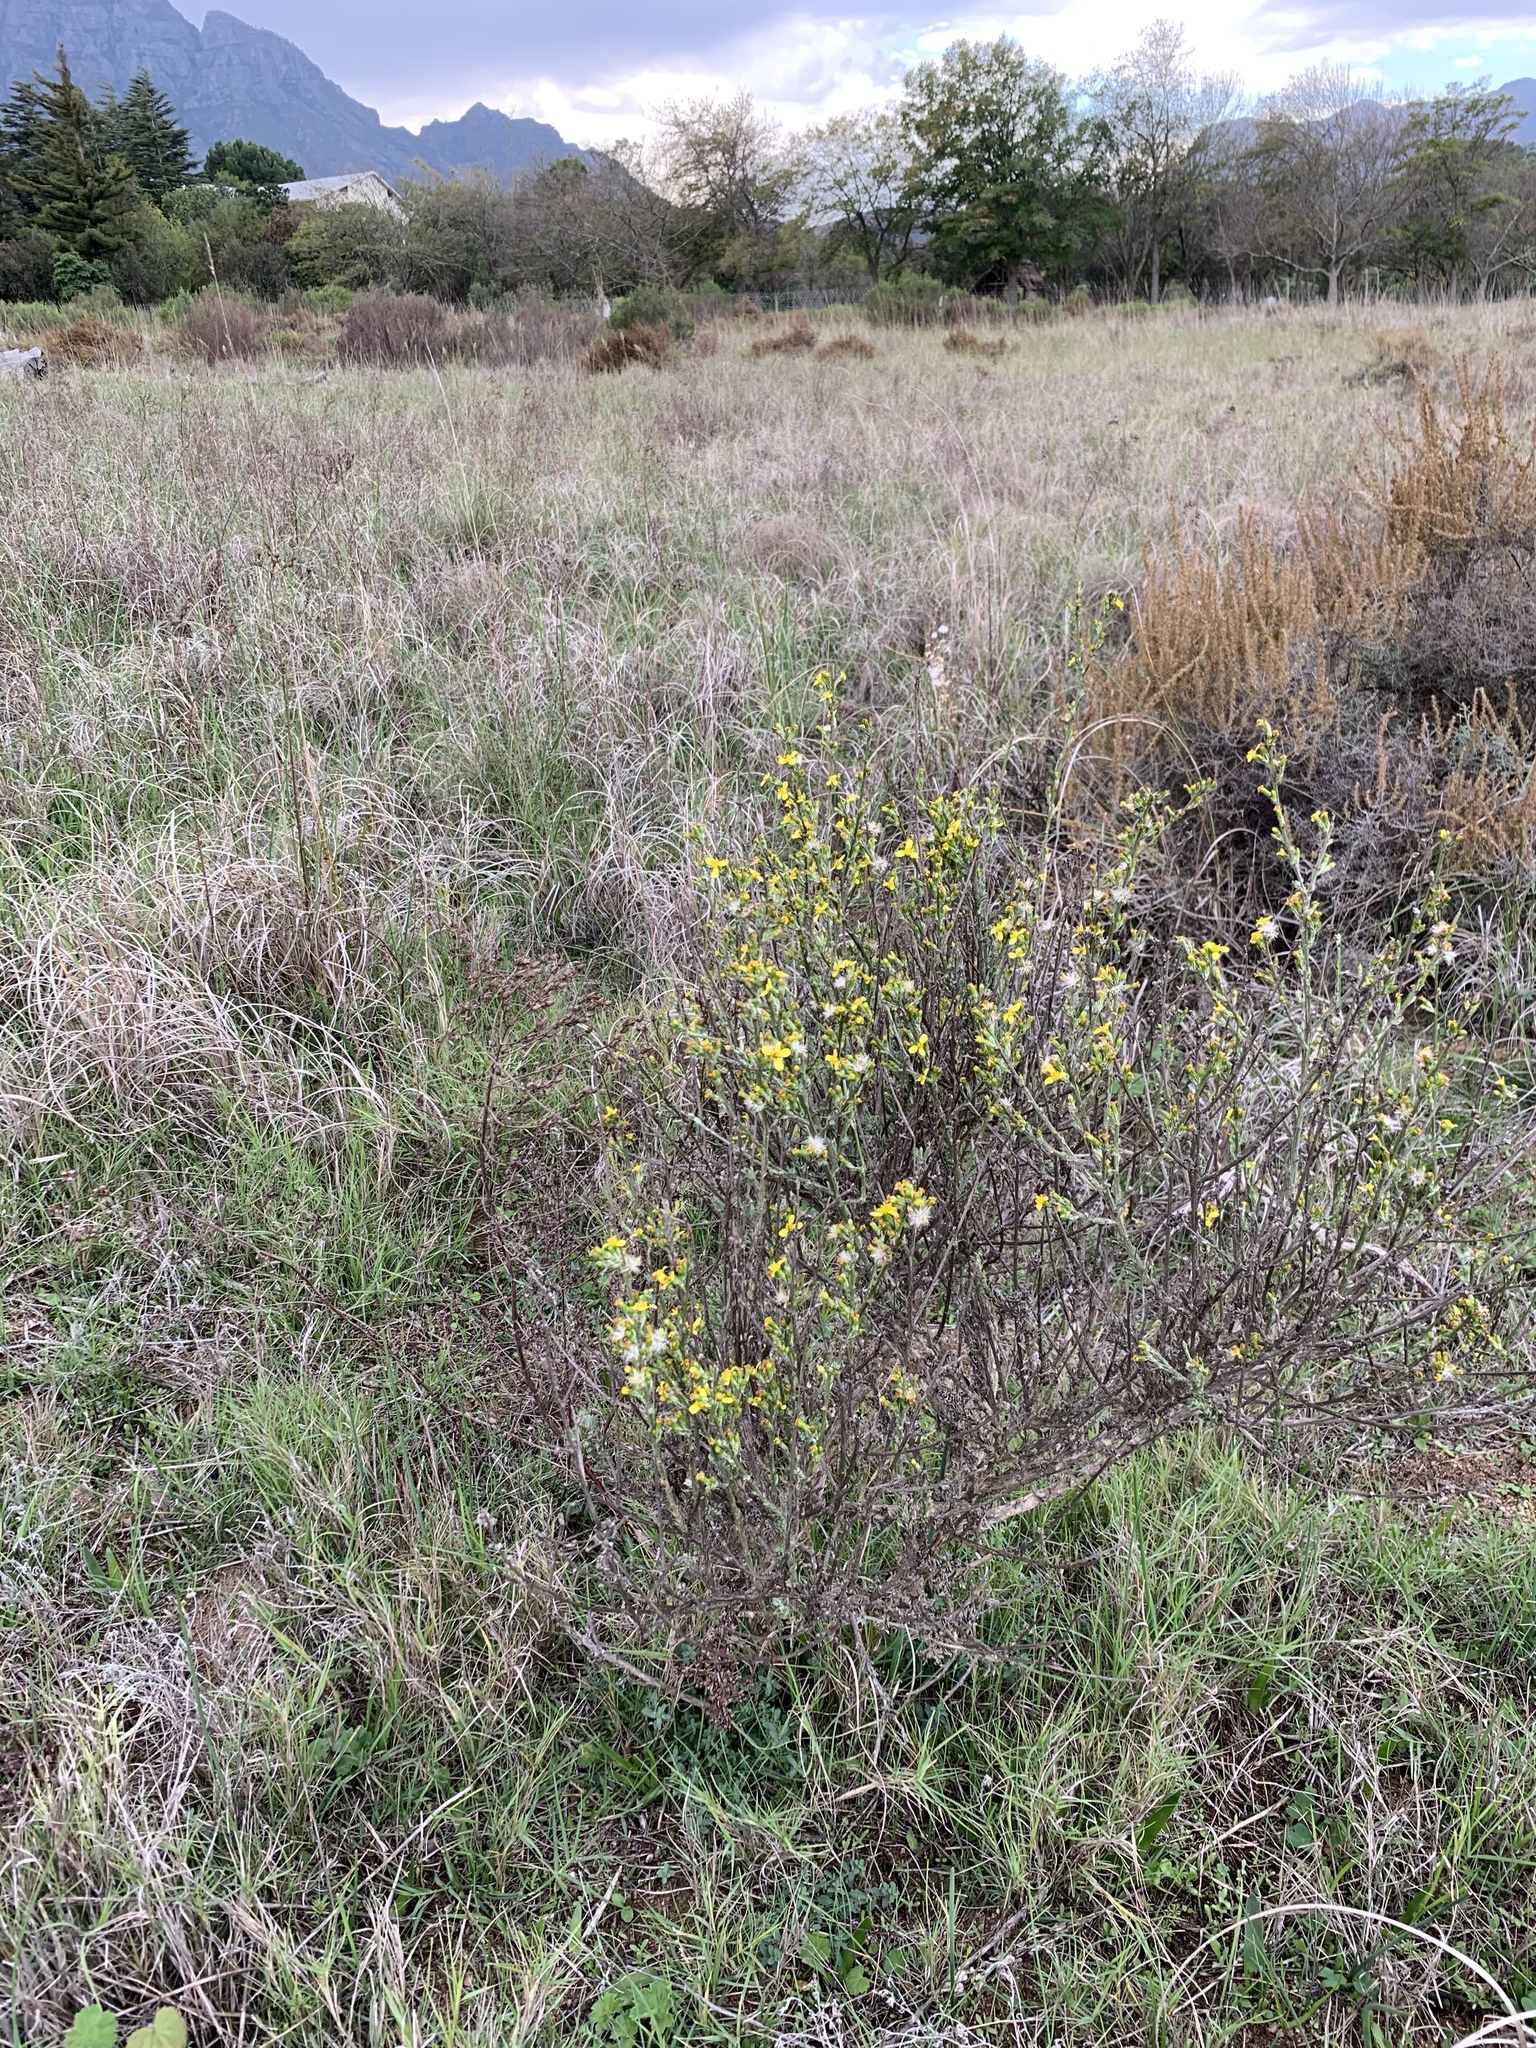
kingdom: Plantae
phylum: Tracheophyta
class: Magnoliopsida
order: Asterales
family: Asteraceae
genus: Senecio
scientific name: Senecio pubigerus
